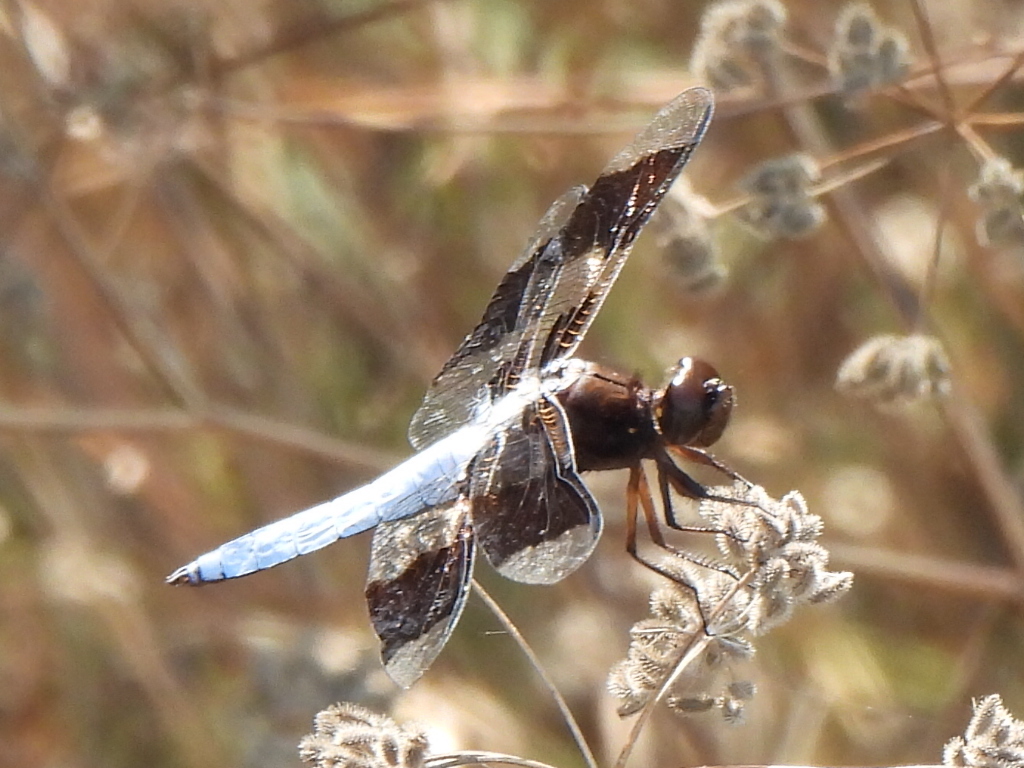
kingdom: Animalia
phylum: Arthropoda
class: Insecta
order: Odonata
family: Libellulidae
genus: Plathemis
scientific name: Plathemis lydia
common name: Common whitetail
